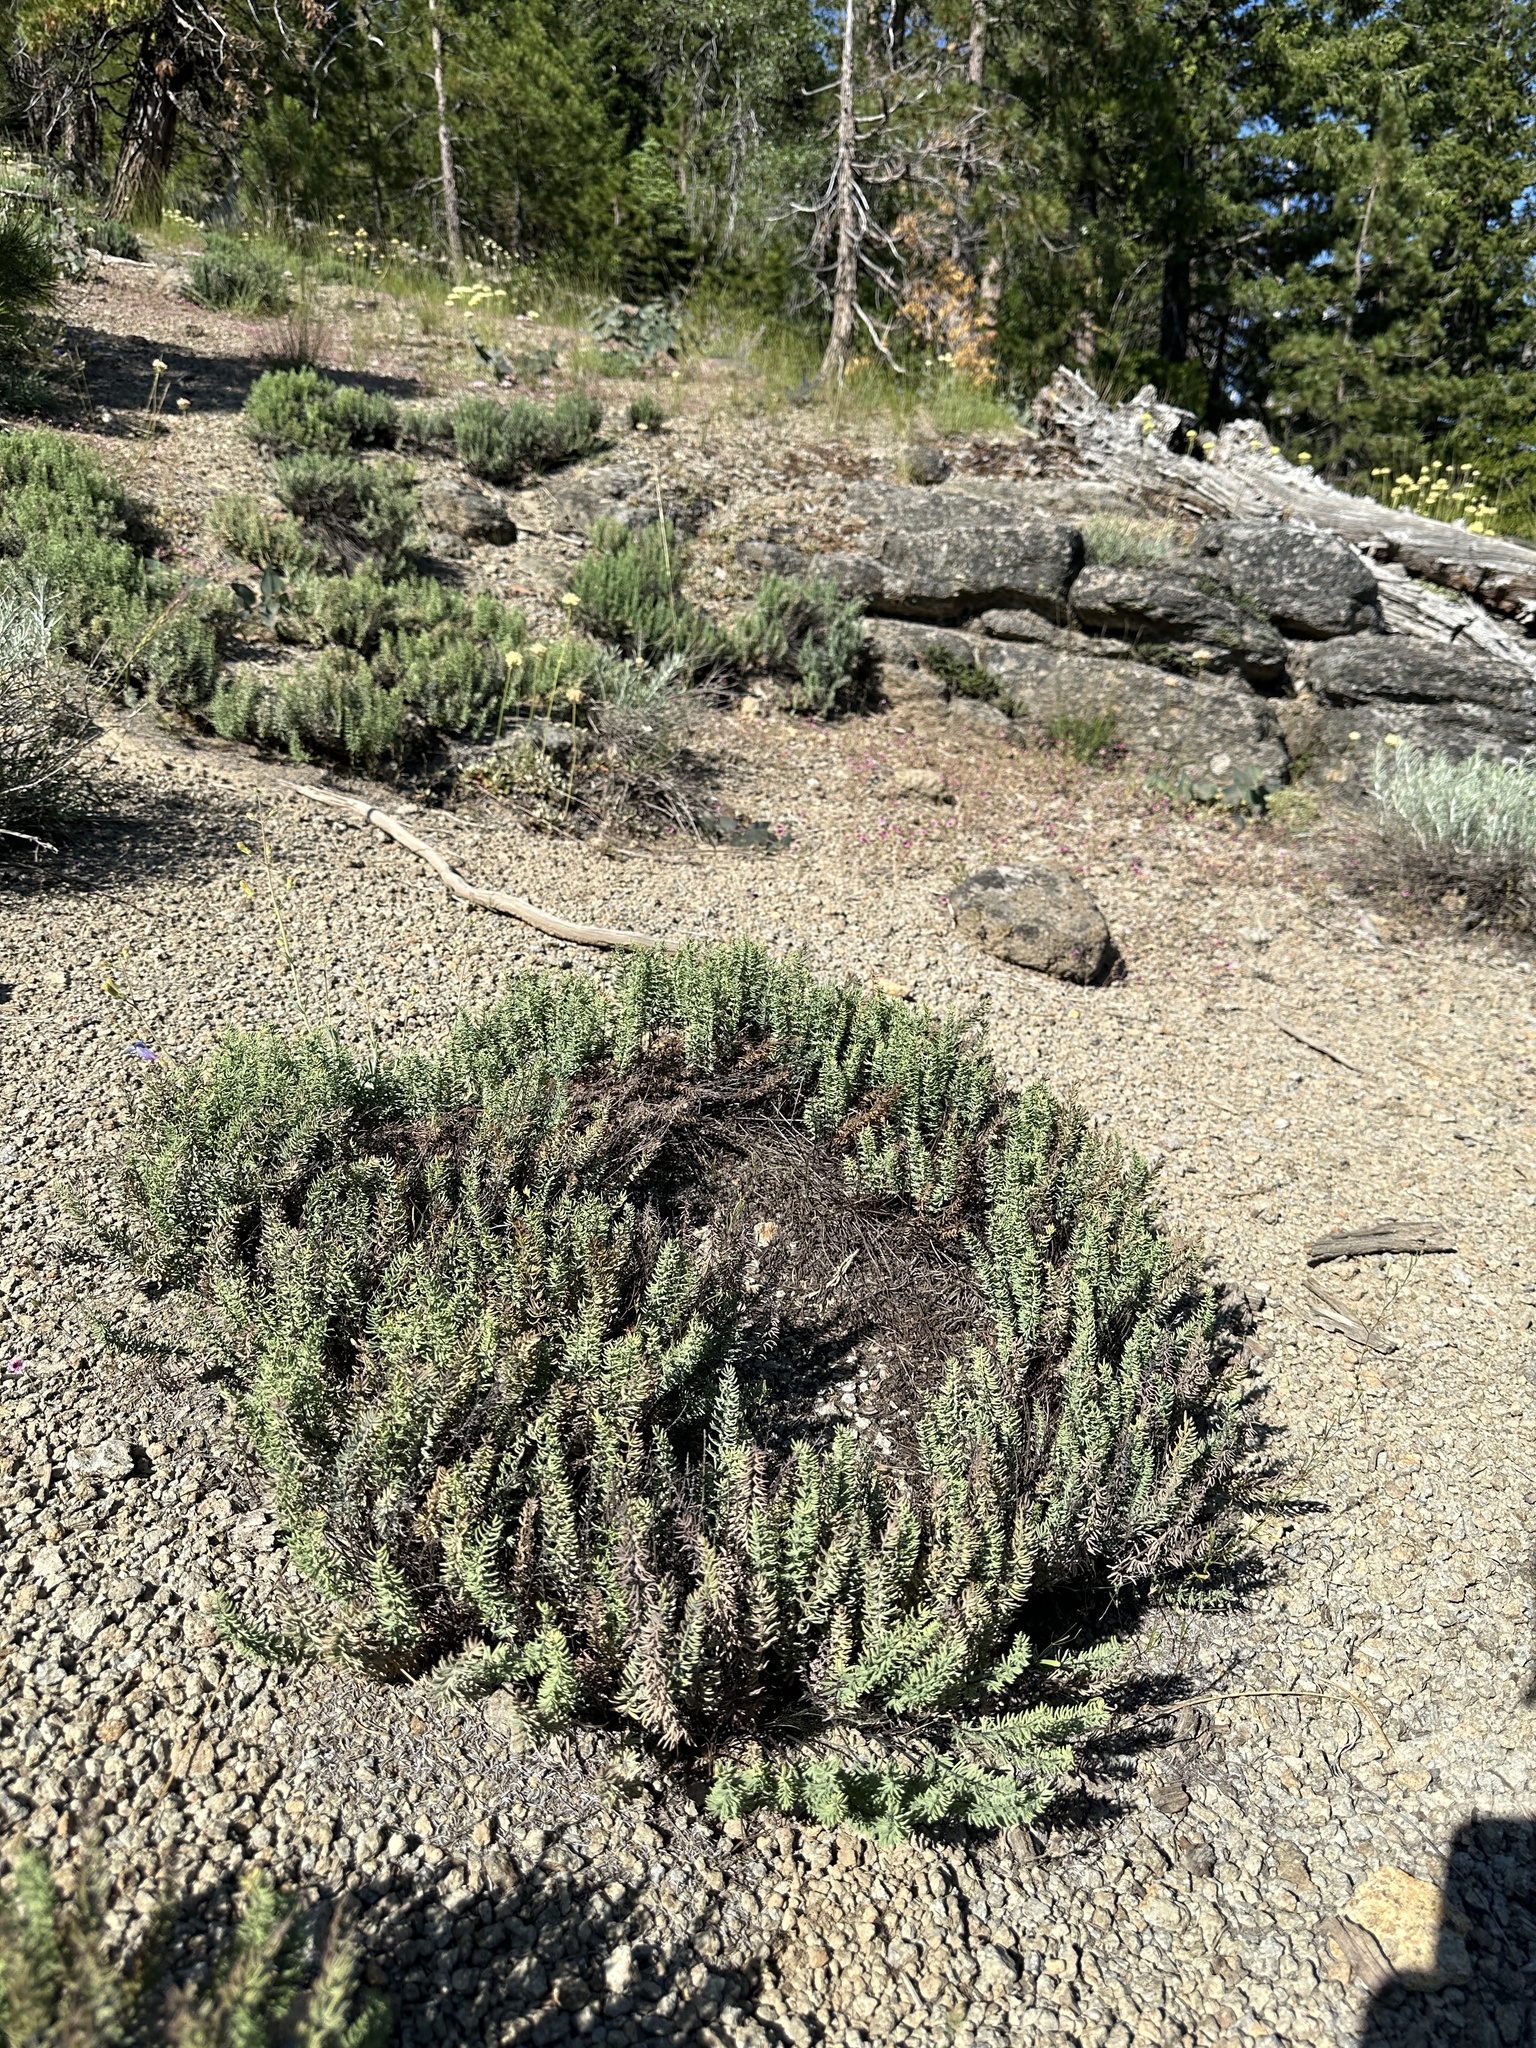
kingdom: Plantae
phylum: Tracheophyta
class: Polypodiopsida
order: Polypodiales
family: Pteridaceae
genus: Pellaea
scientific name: Pellaea brachyptera
